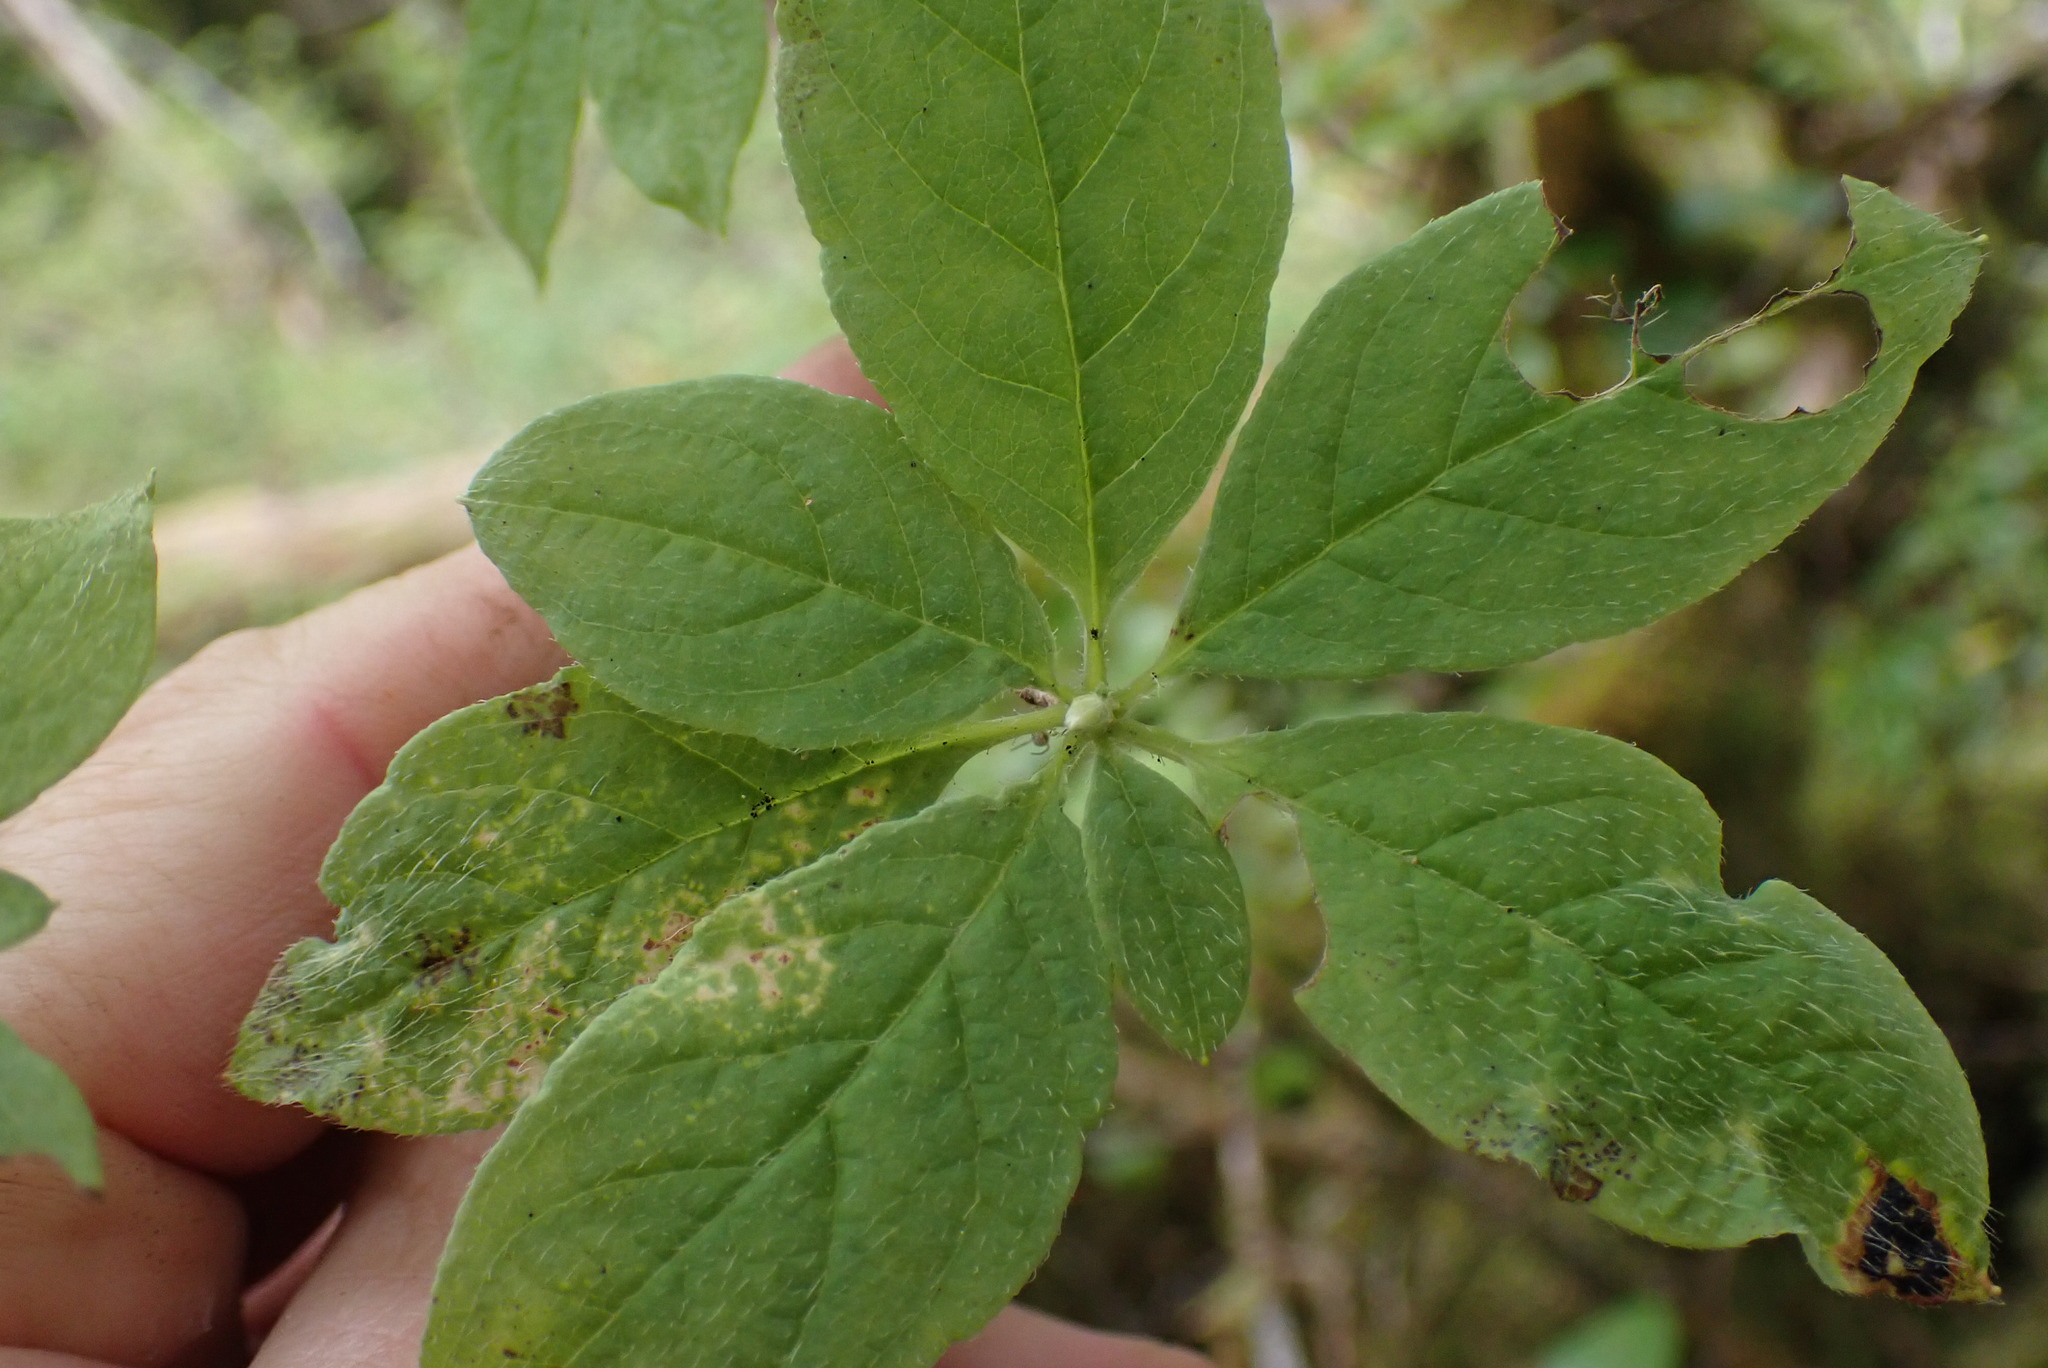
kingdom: Plantae
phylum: Tracheophyta
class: Magnoliopsida
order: Ericales
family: Ericaceae
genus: Rhododendron
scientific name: Rhododendron menziesii
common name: Pacific menziesia
